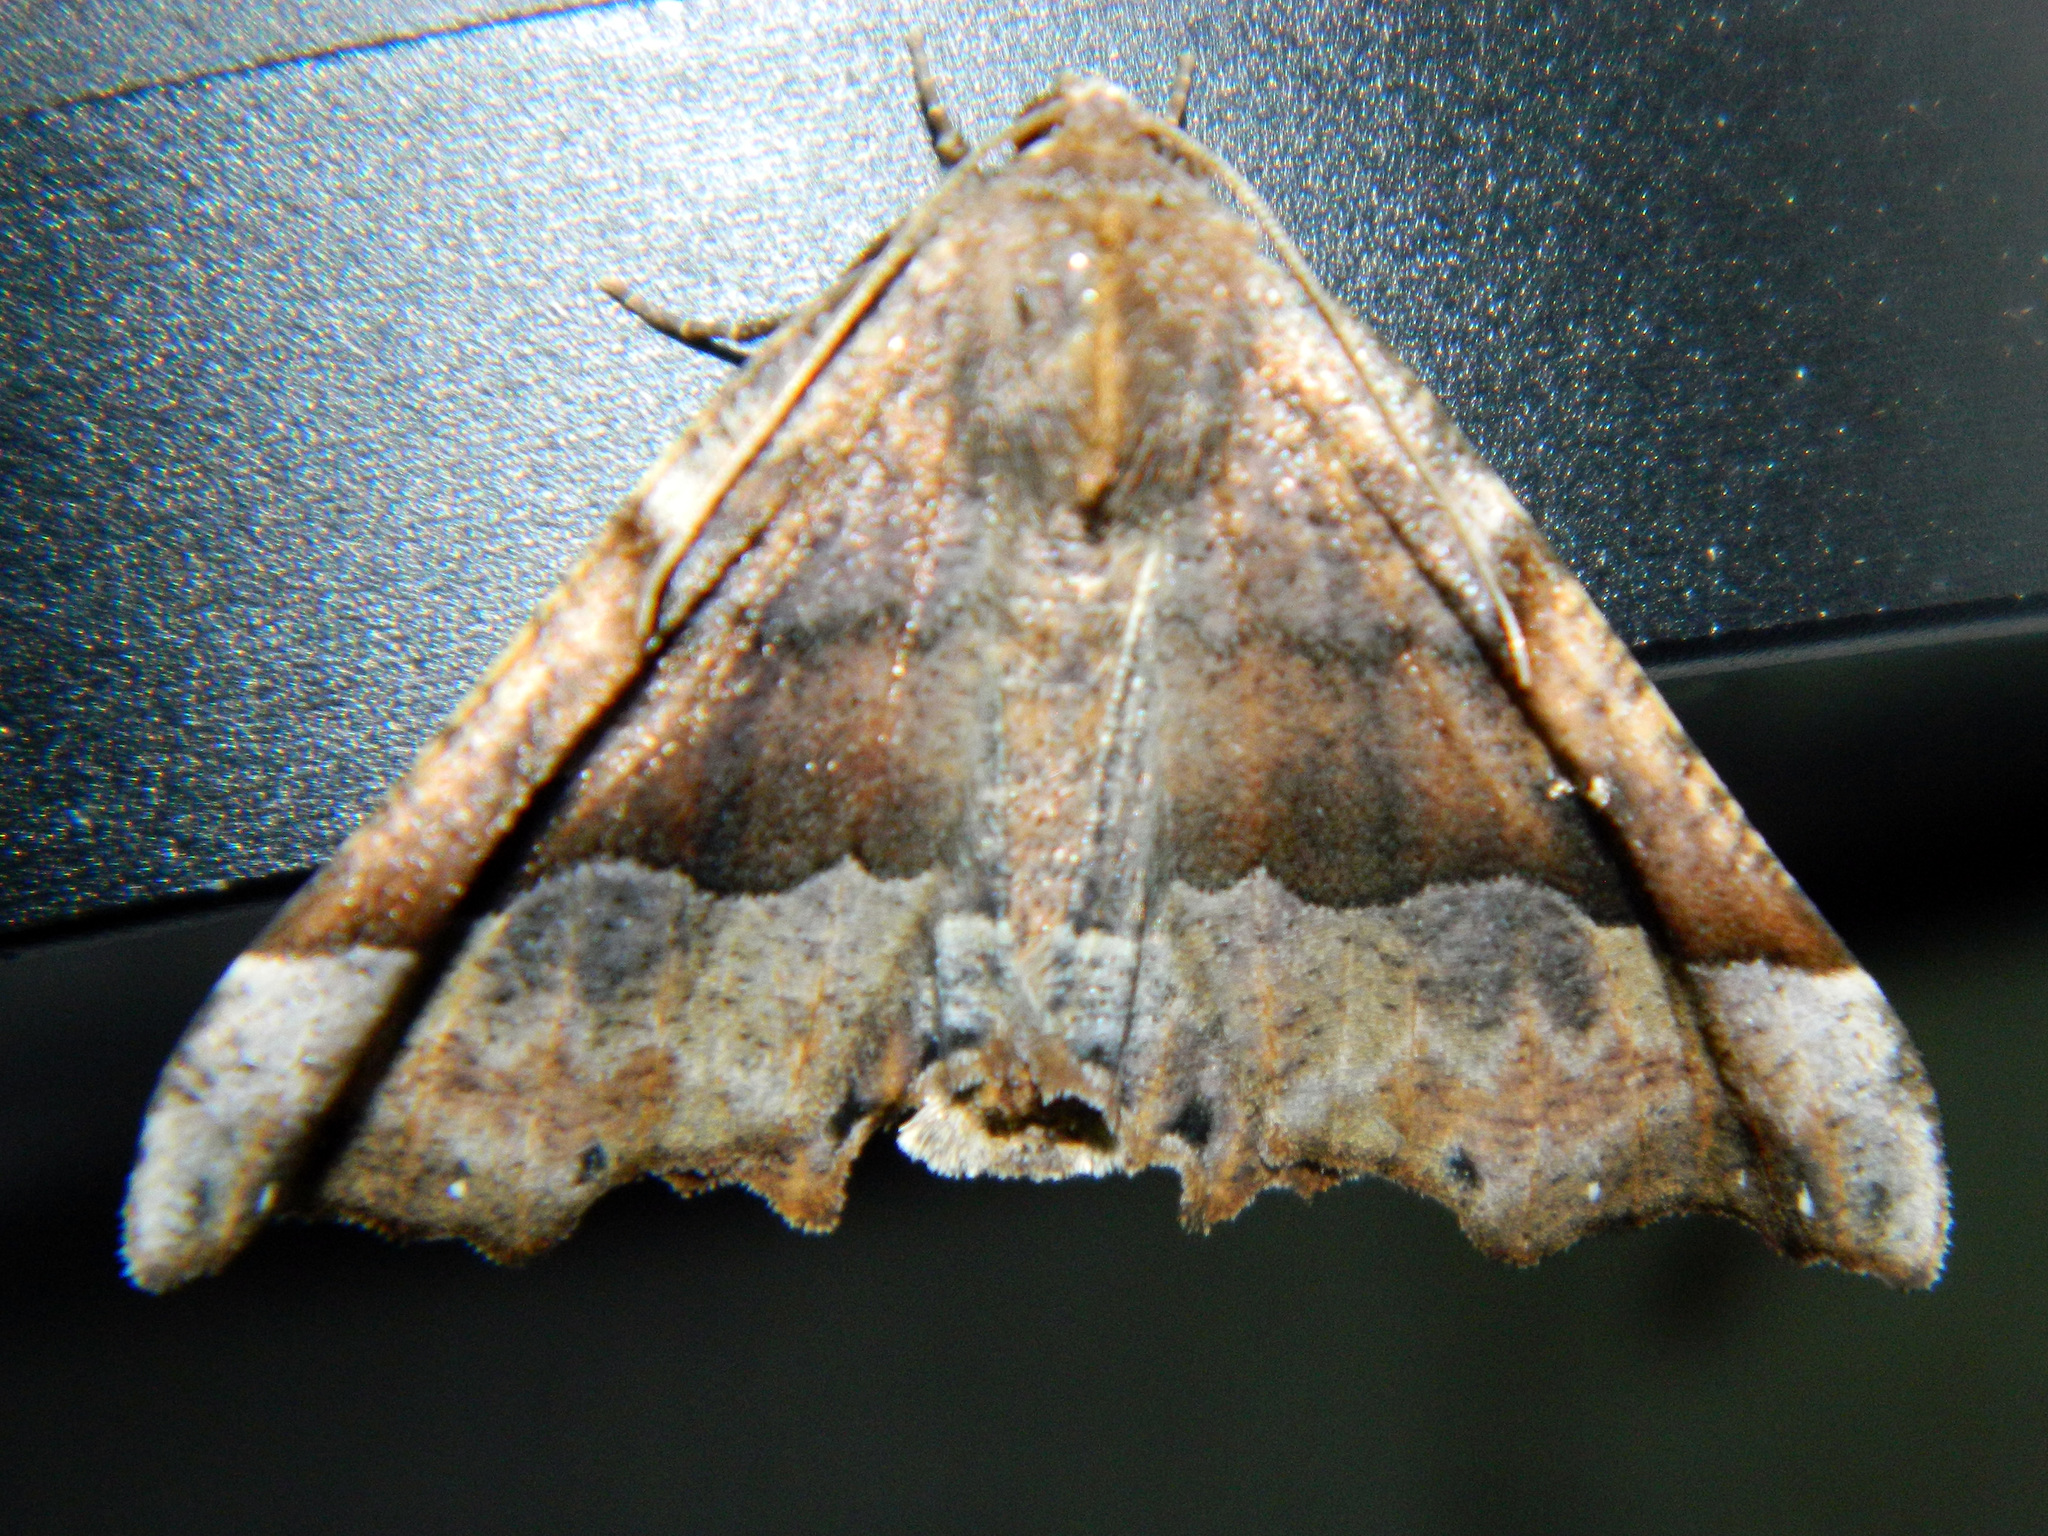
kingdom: Animalia
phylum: Arthropoda
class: Insecta
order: Lepidoptera
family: Geometridae
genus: Pero
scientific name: Pero morrisonaria
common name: Morrison's pero
